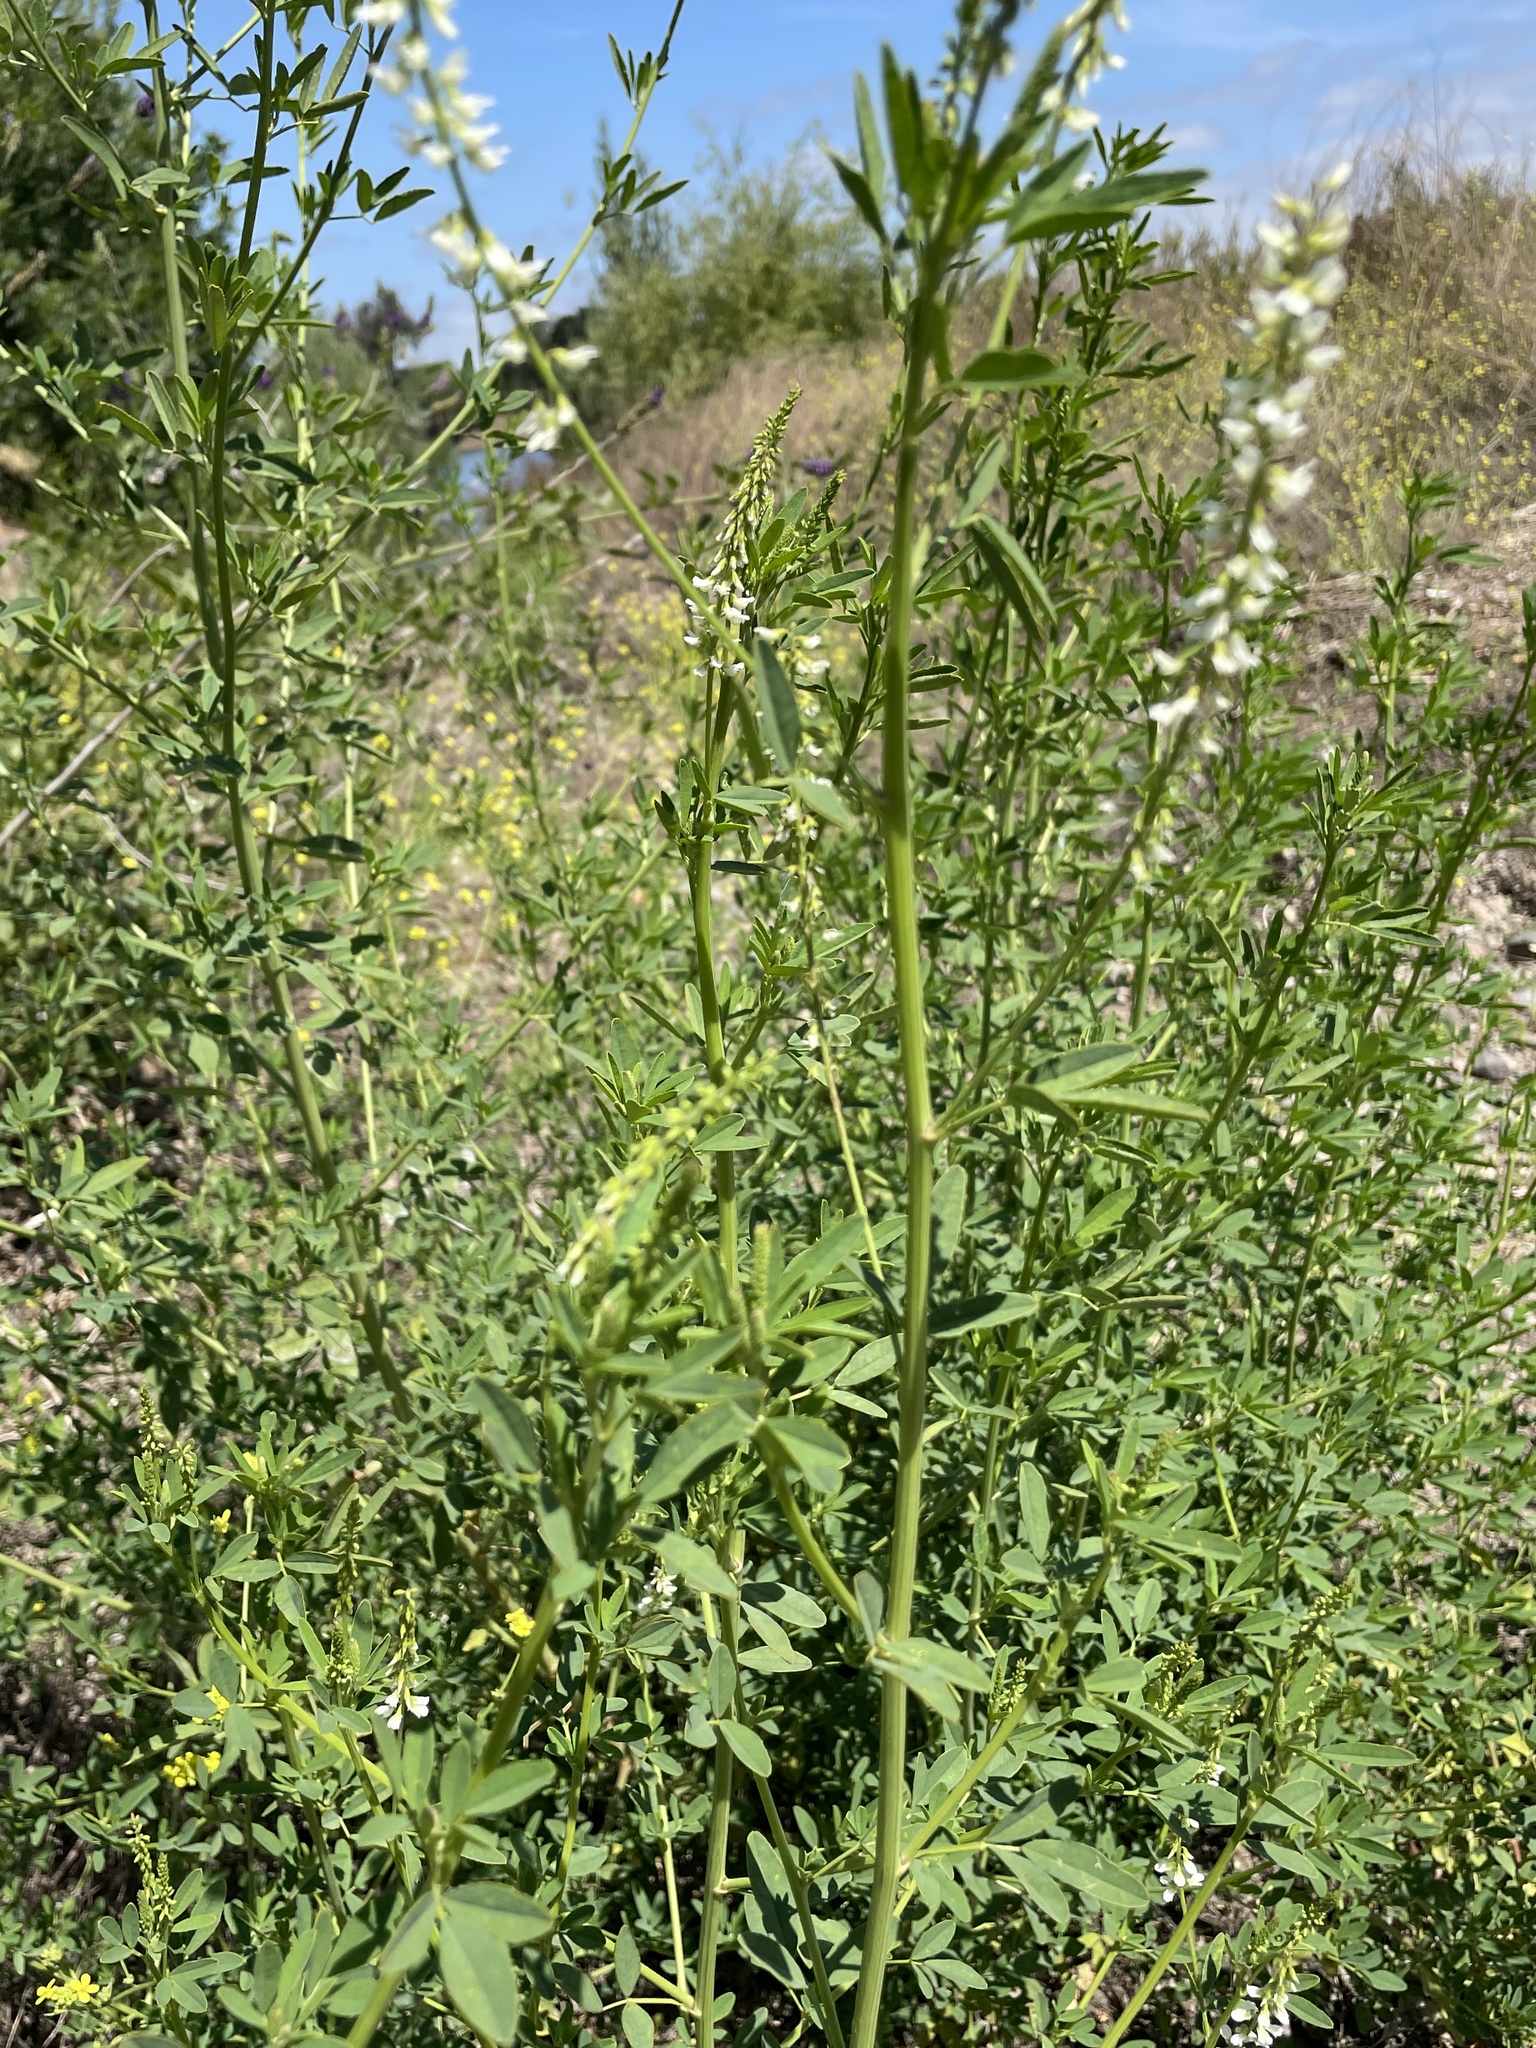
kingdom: Plantae
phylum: Tracheophyta
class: Magnoliopsida
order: Fabales
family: Fabaceae
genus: Melilotus
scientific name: Melilotus albus
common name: White melilot
